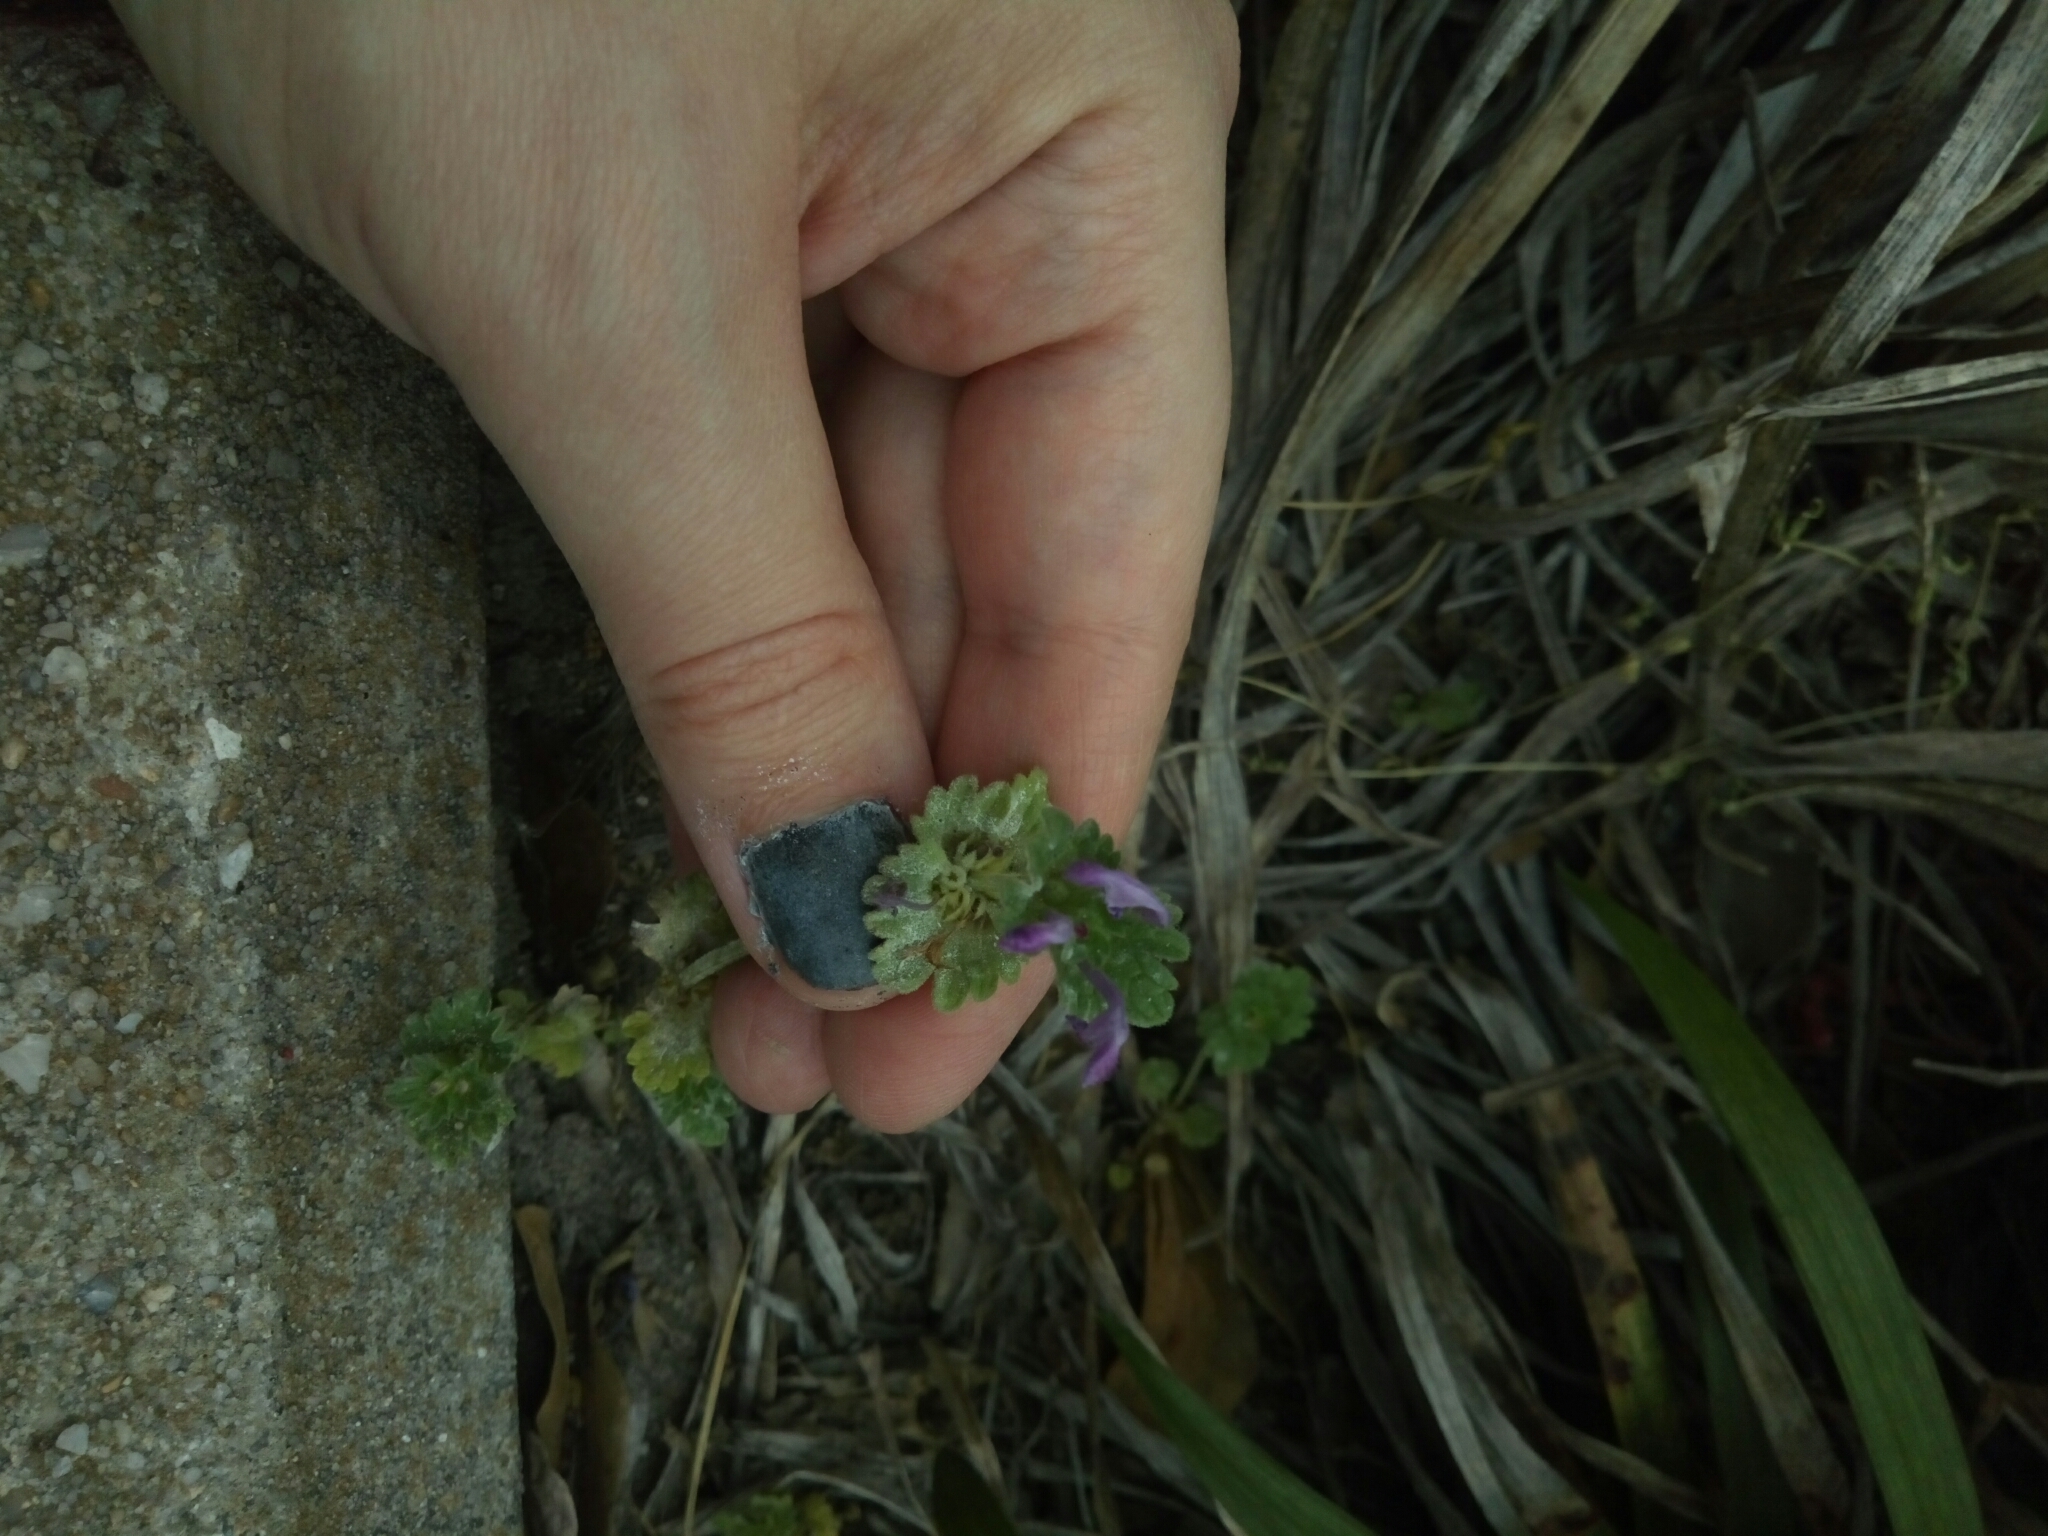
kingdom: Plantae
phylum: Tracheophyta
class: Magnoliopsida
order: Lamiales
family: Lamiaceae
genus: Lamium
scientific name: Lamium amplexicaule
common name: Henbit dead-nettle
